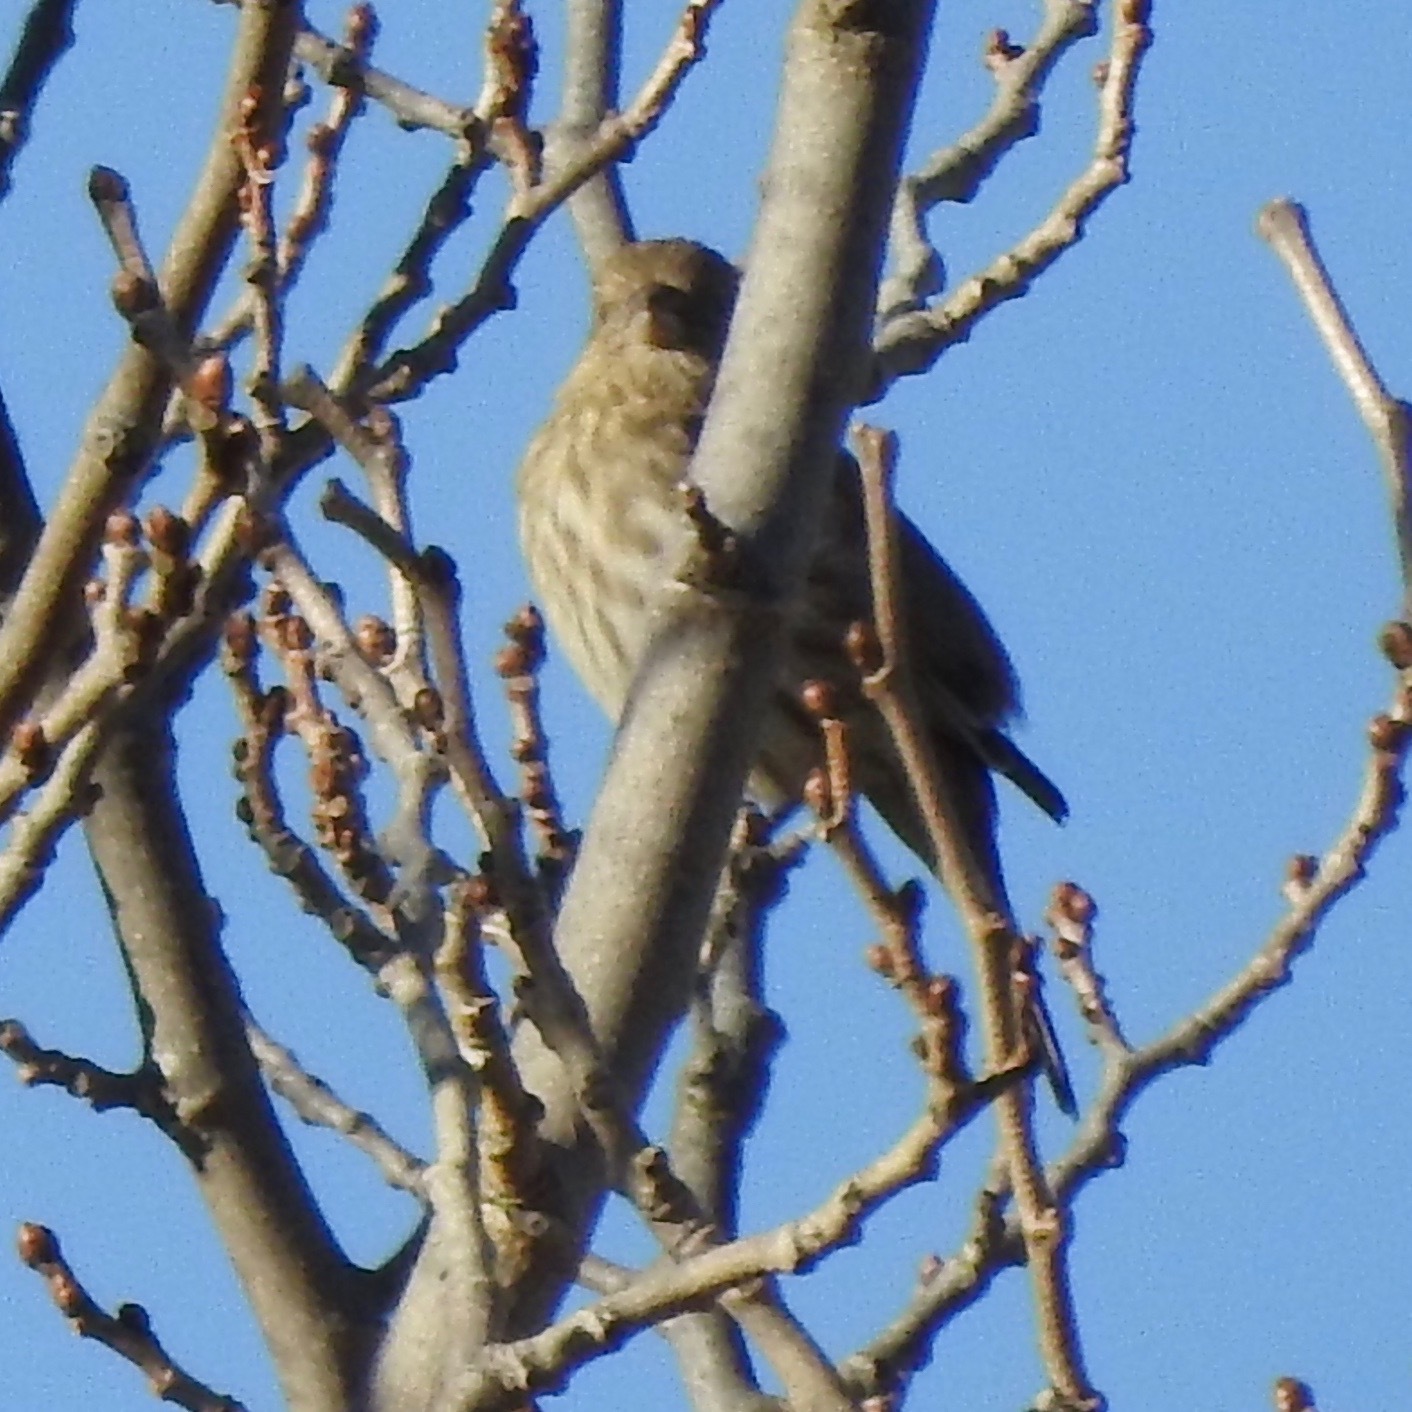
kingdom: Animalia
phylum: Chordata
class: Aves
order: Passeriformes
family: Fringillidae
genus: Haemorhous
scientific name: Haemorhous mexicanus
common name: House finch
